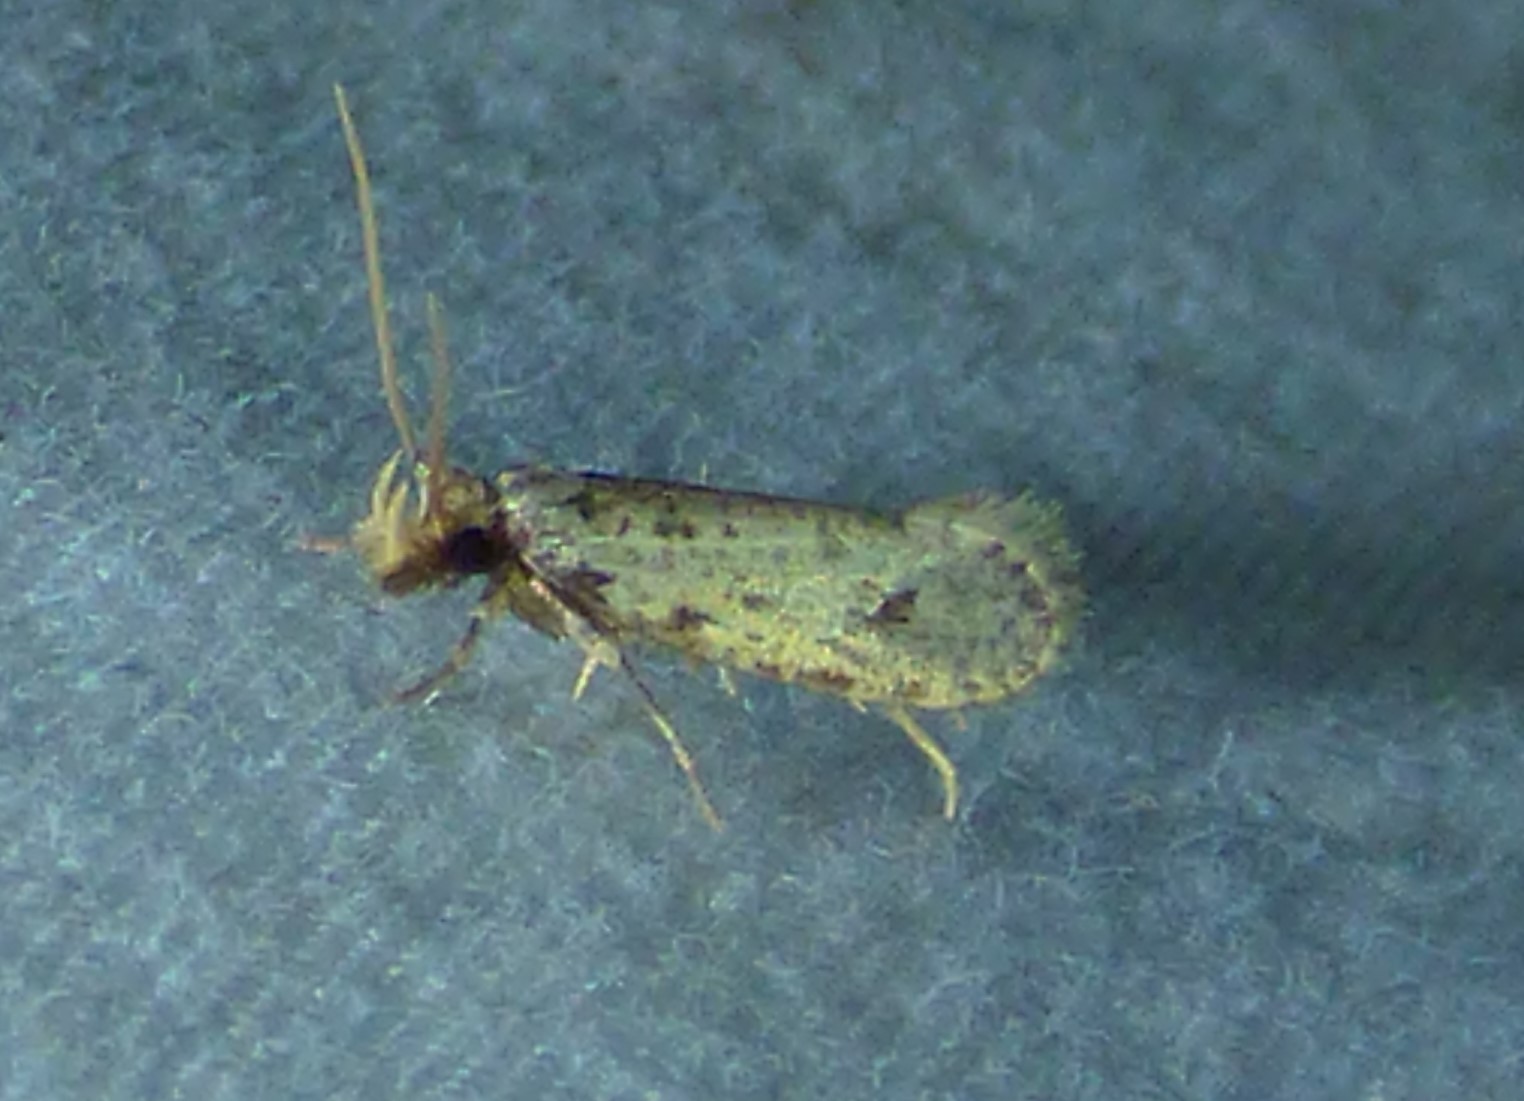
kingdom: Animalia
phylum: Arthropoda
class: Insecta
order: Lepidoptera
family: Tineidae
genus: Amydria
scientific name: Amydria effrentella
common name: Brown-blotched amydria moth
